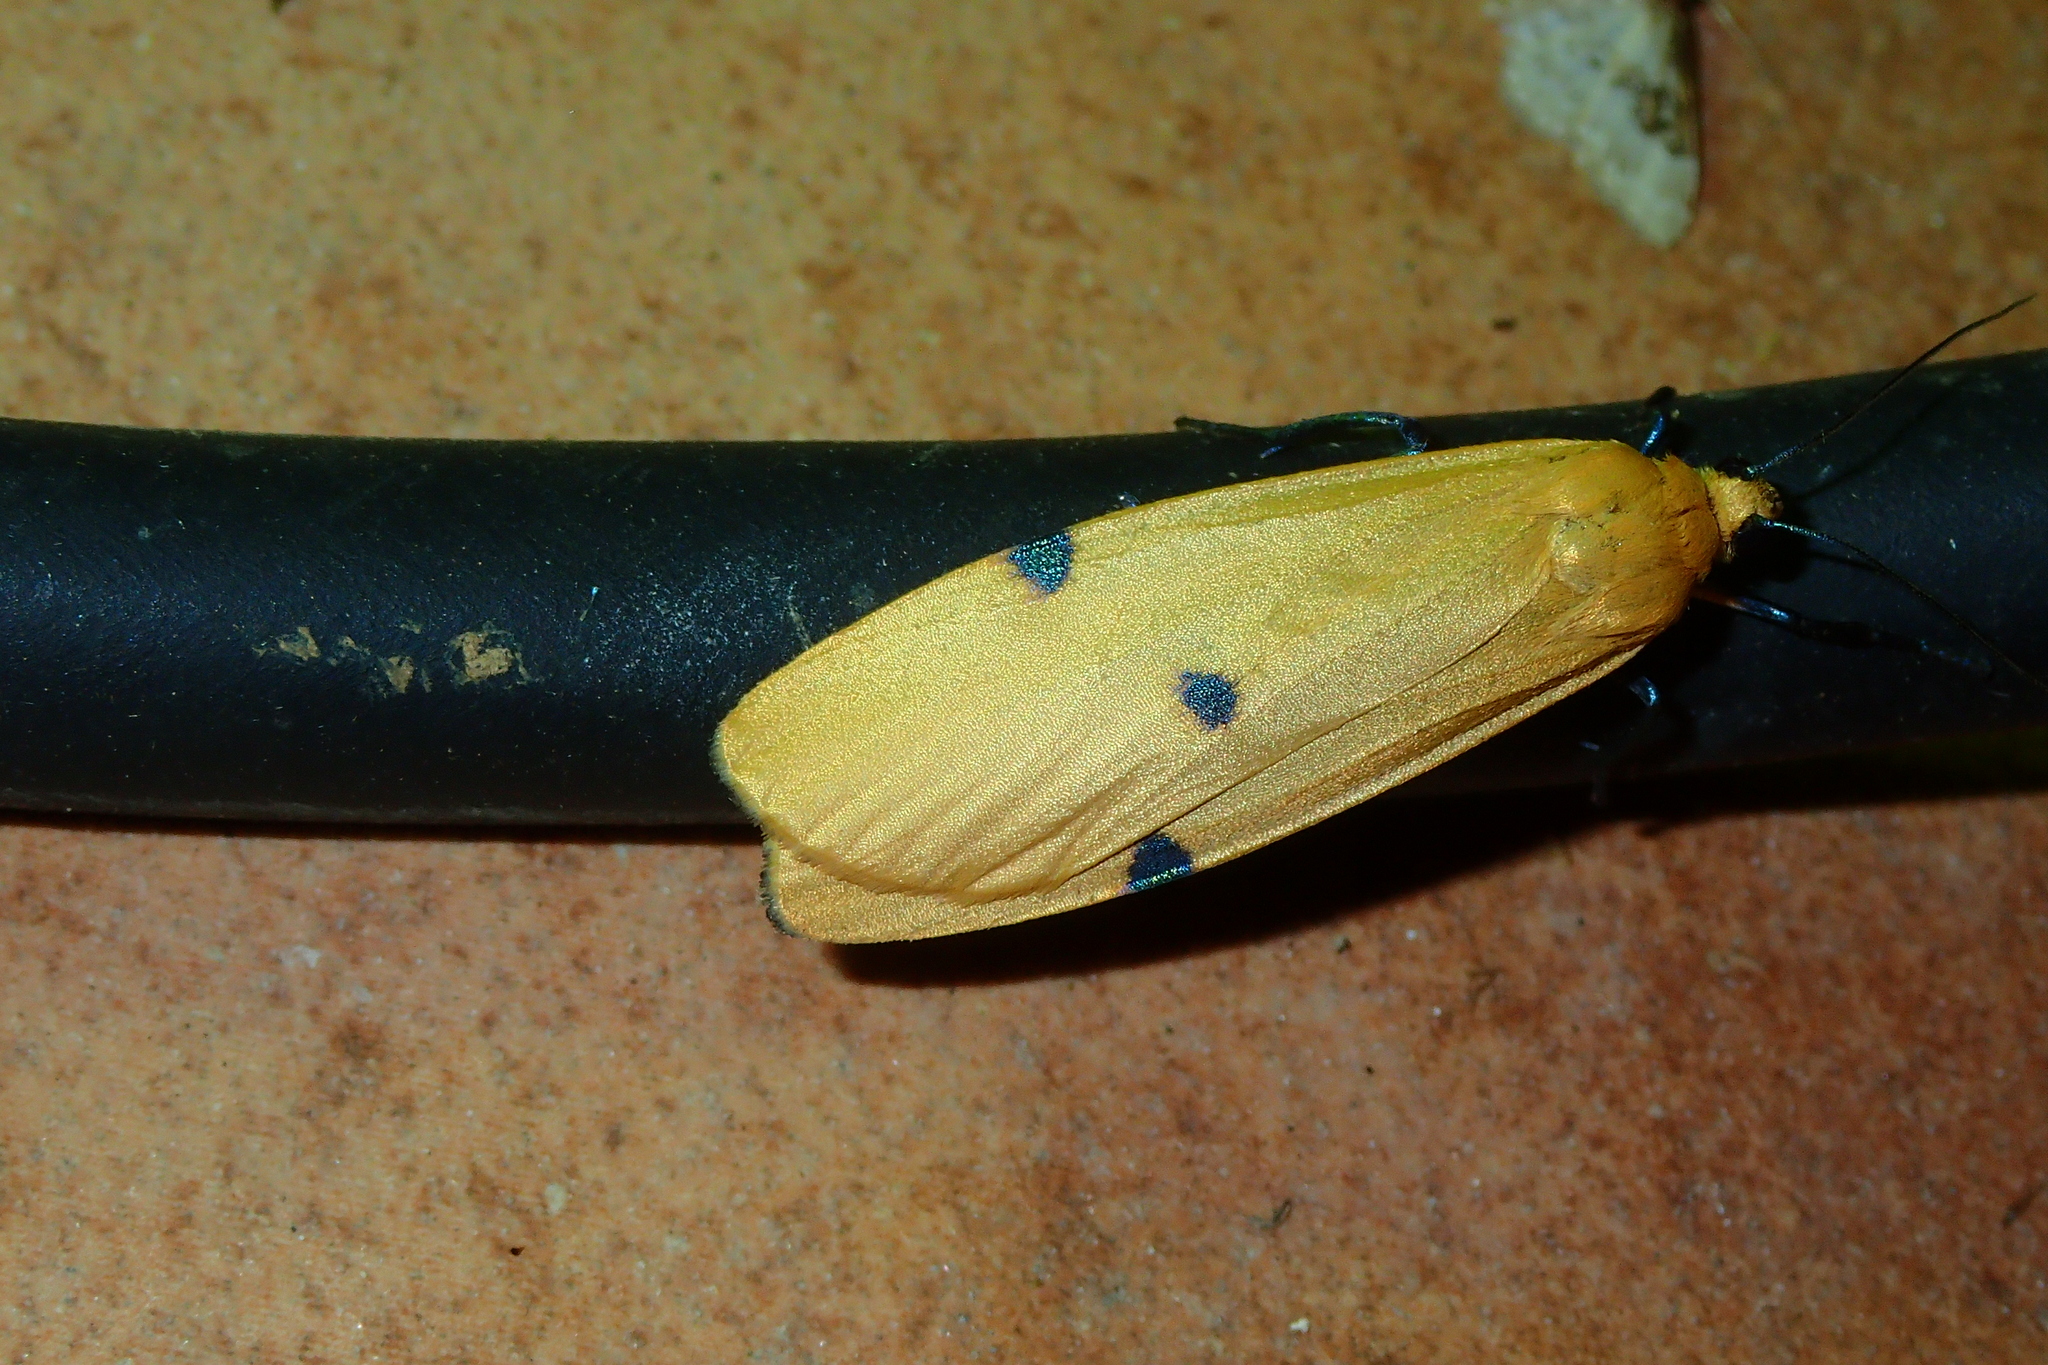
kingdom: Animalia
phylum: Arthropoda
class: Insecta
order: Lepidoptera
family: Erebidae
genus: Lithosia
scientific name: Lithosia quadra
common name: Four-spotted footman
